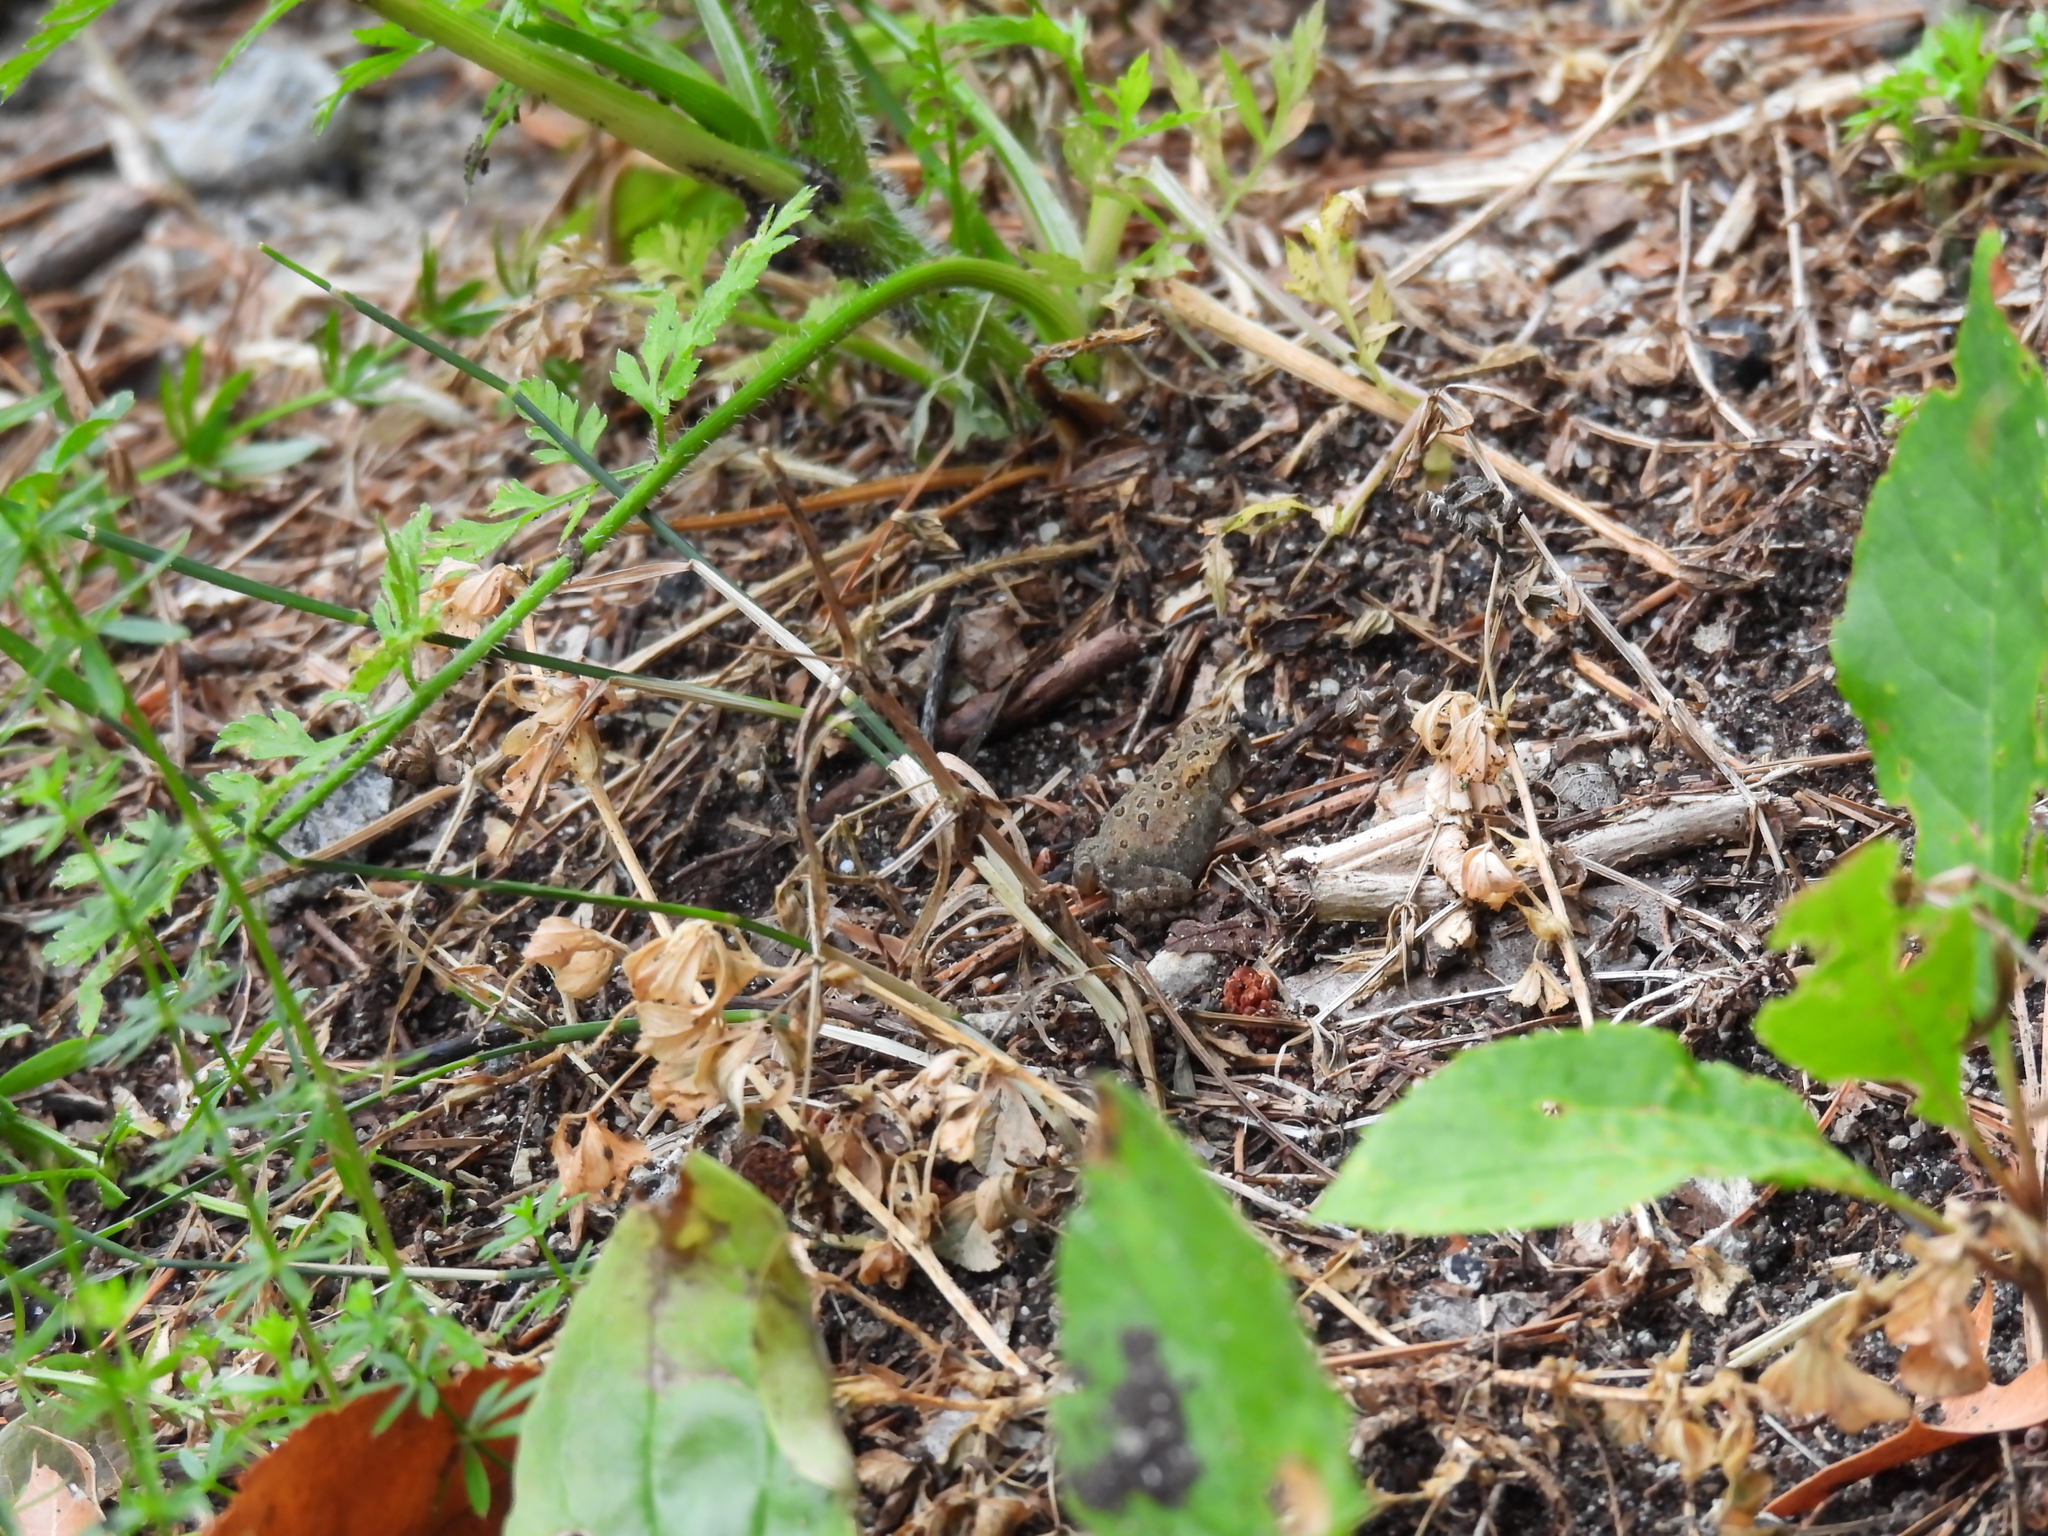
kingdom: Animalia
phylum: Chordata
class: Amphibia
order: Anura
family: Bufonidae
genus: Anaxyrus
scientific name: Anaxyrus americanus
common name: American toad
